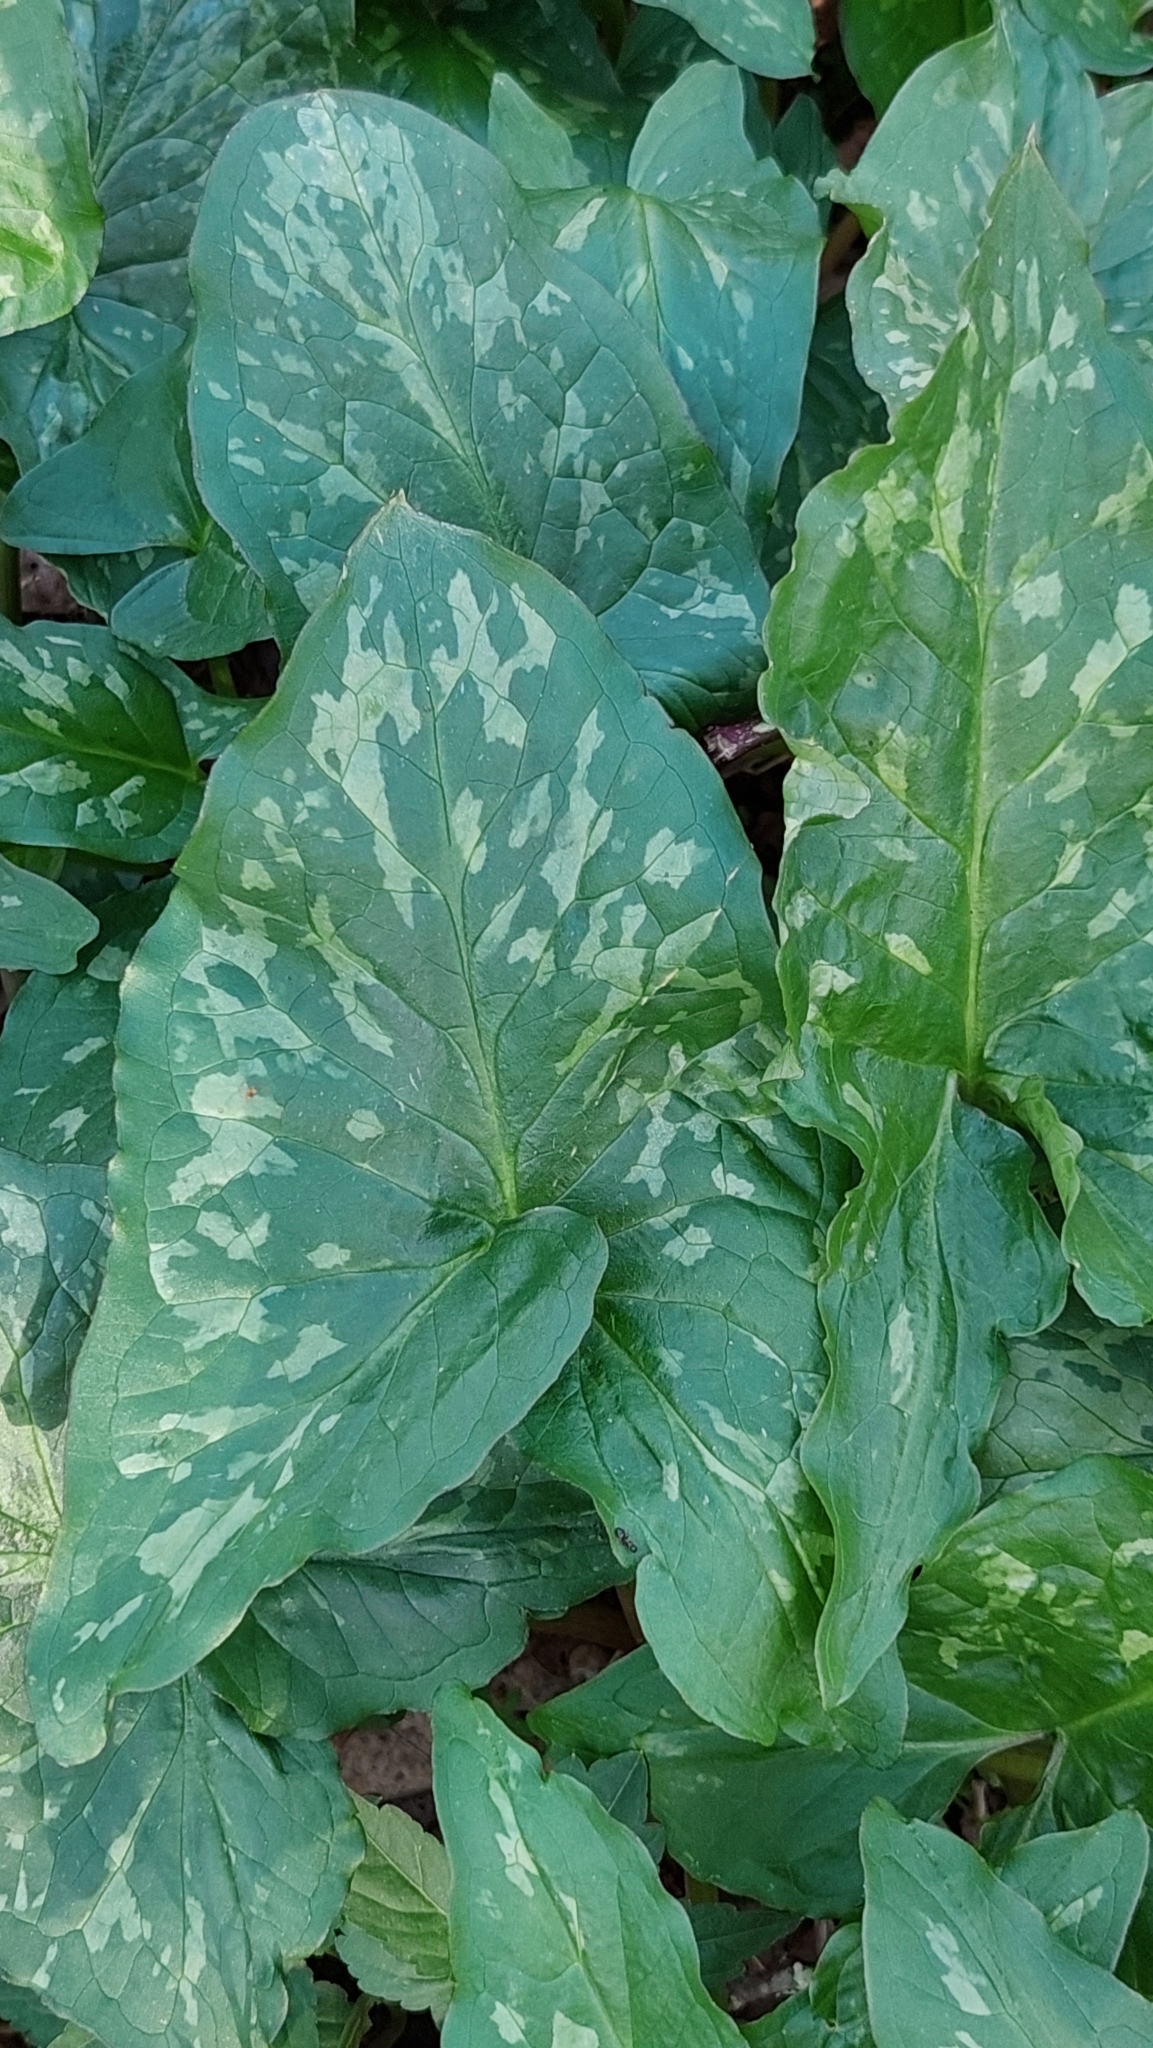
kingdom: Plantae
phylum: Tracheophyta
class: Liliopsida
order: Alismatales
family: Araceae
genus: Arum
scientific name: Arum maculatum
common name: Lords-and-ladies
